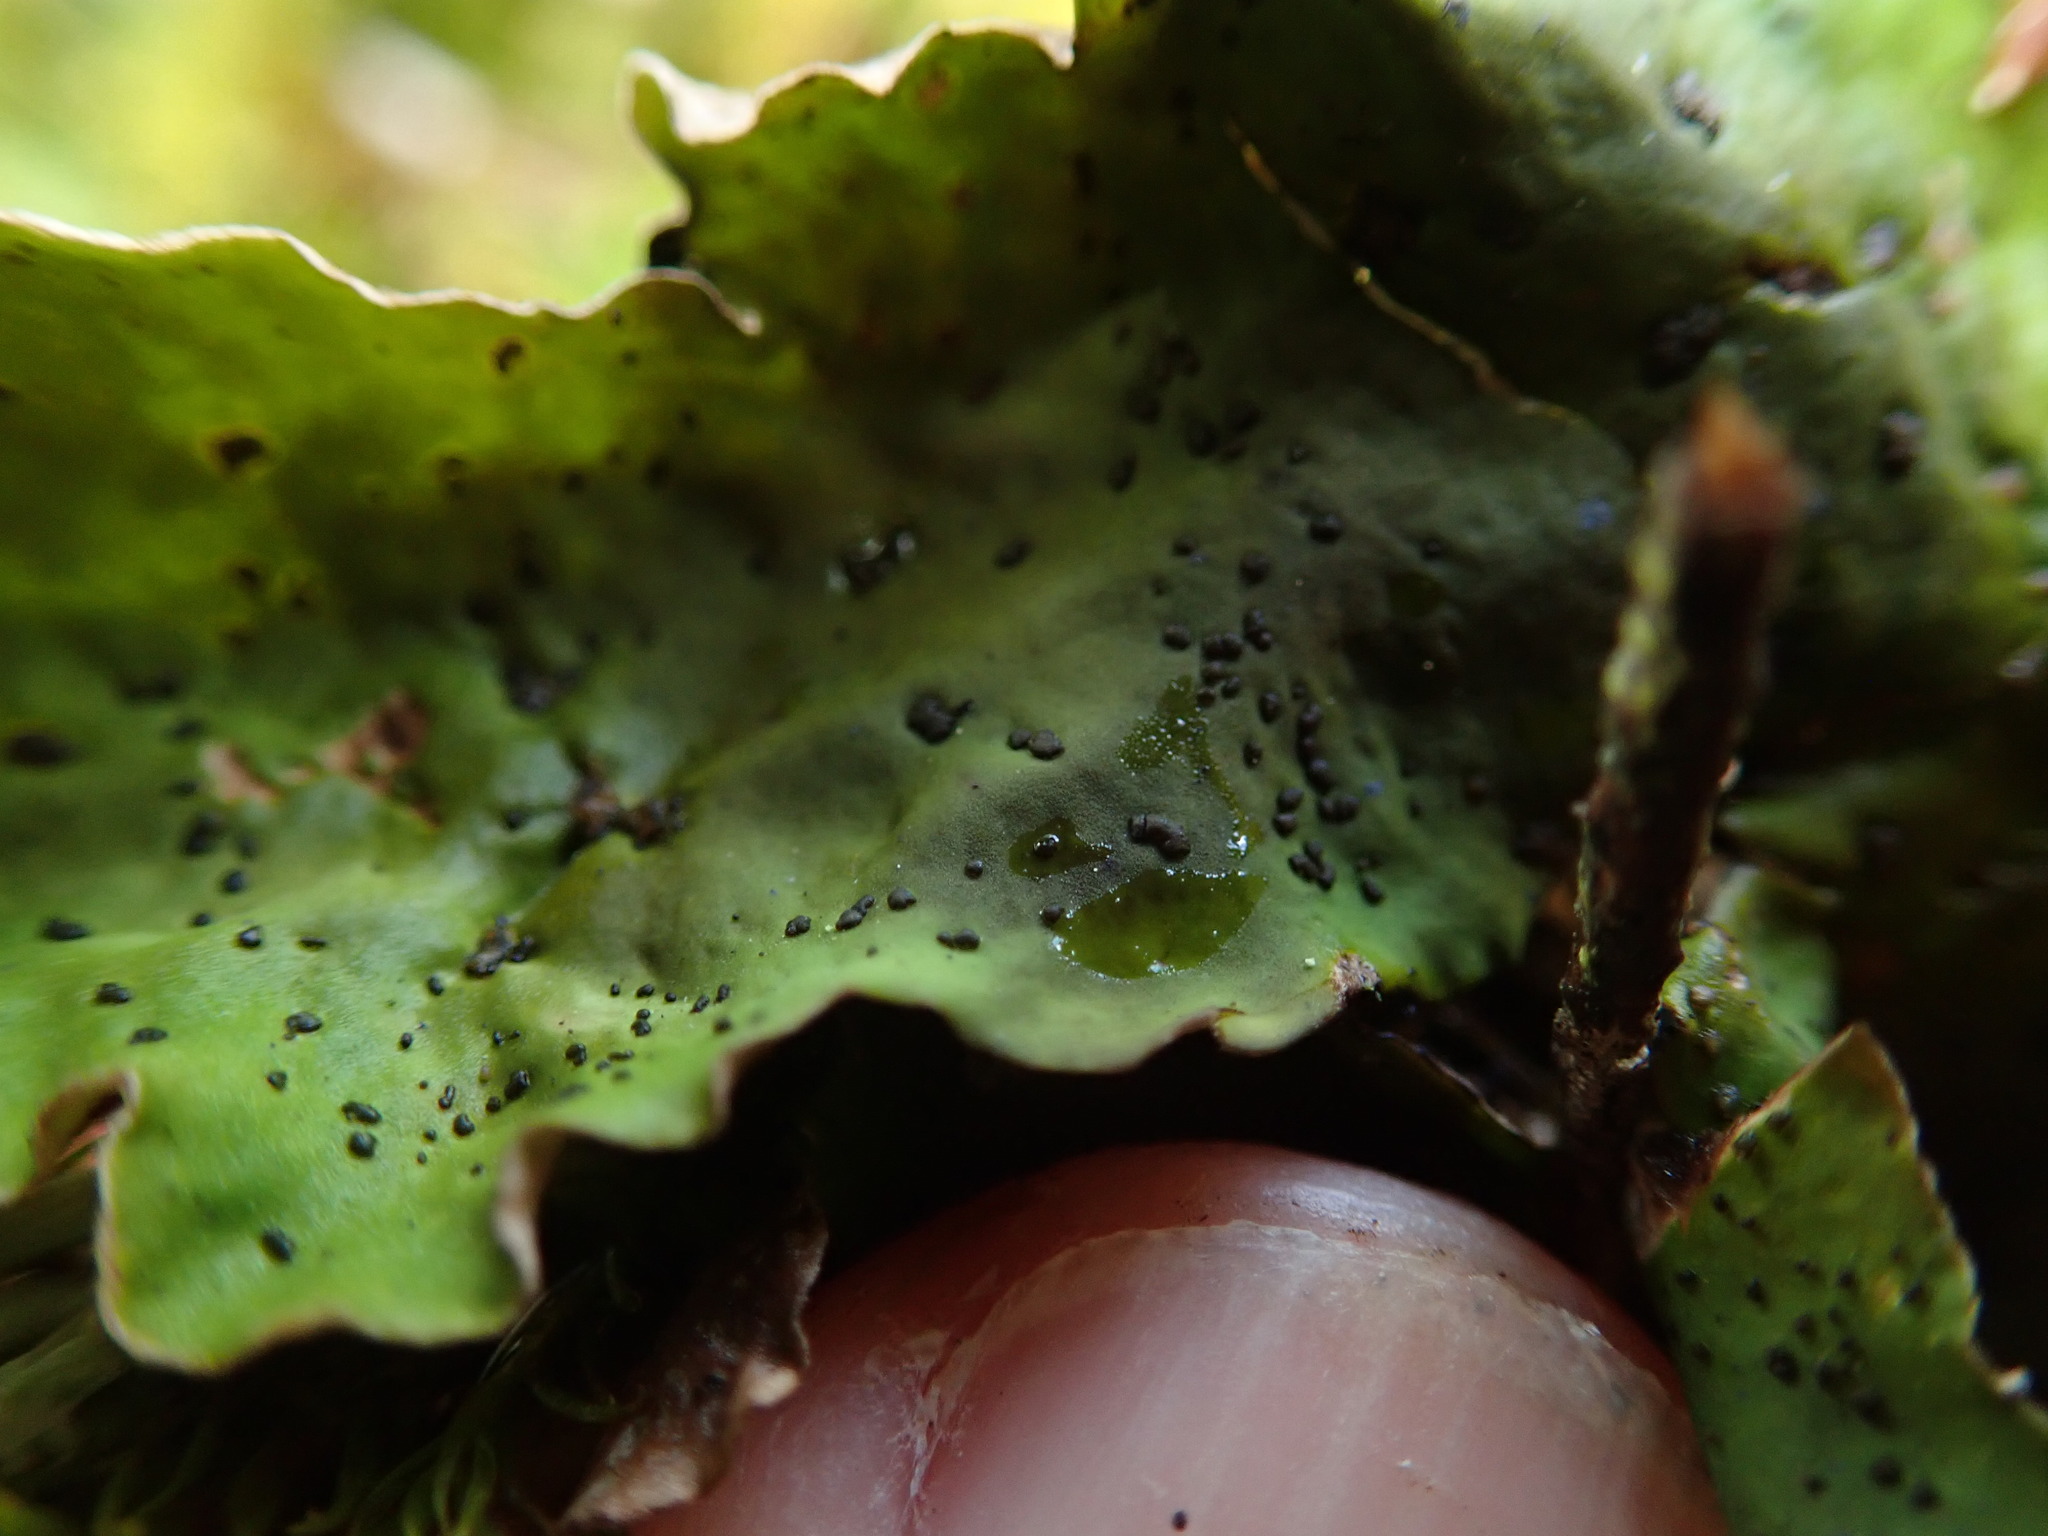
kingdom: Fungi
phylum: Ascomycota
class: Lecanoromycetes
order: Peltigerales
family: Peltigeraceae
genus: Peltigera
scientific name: Peltigera britannica
